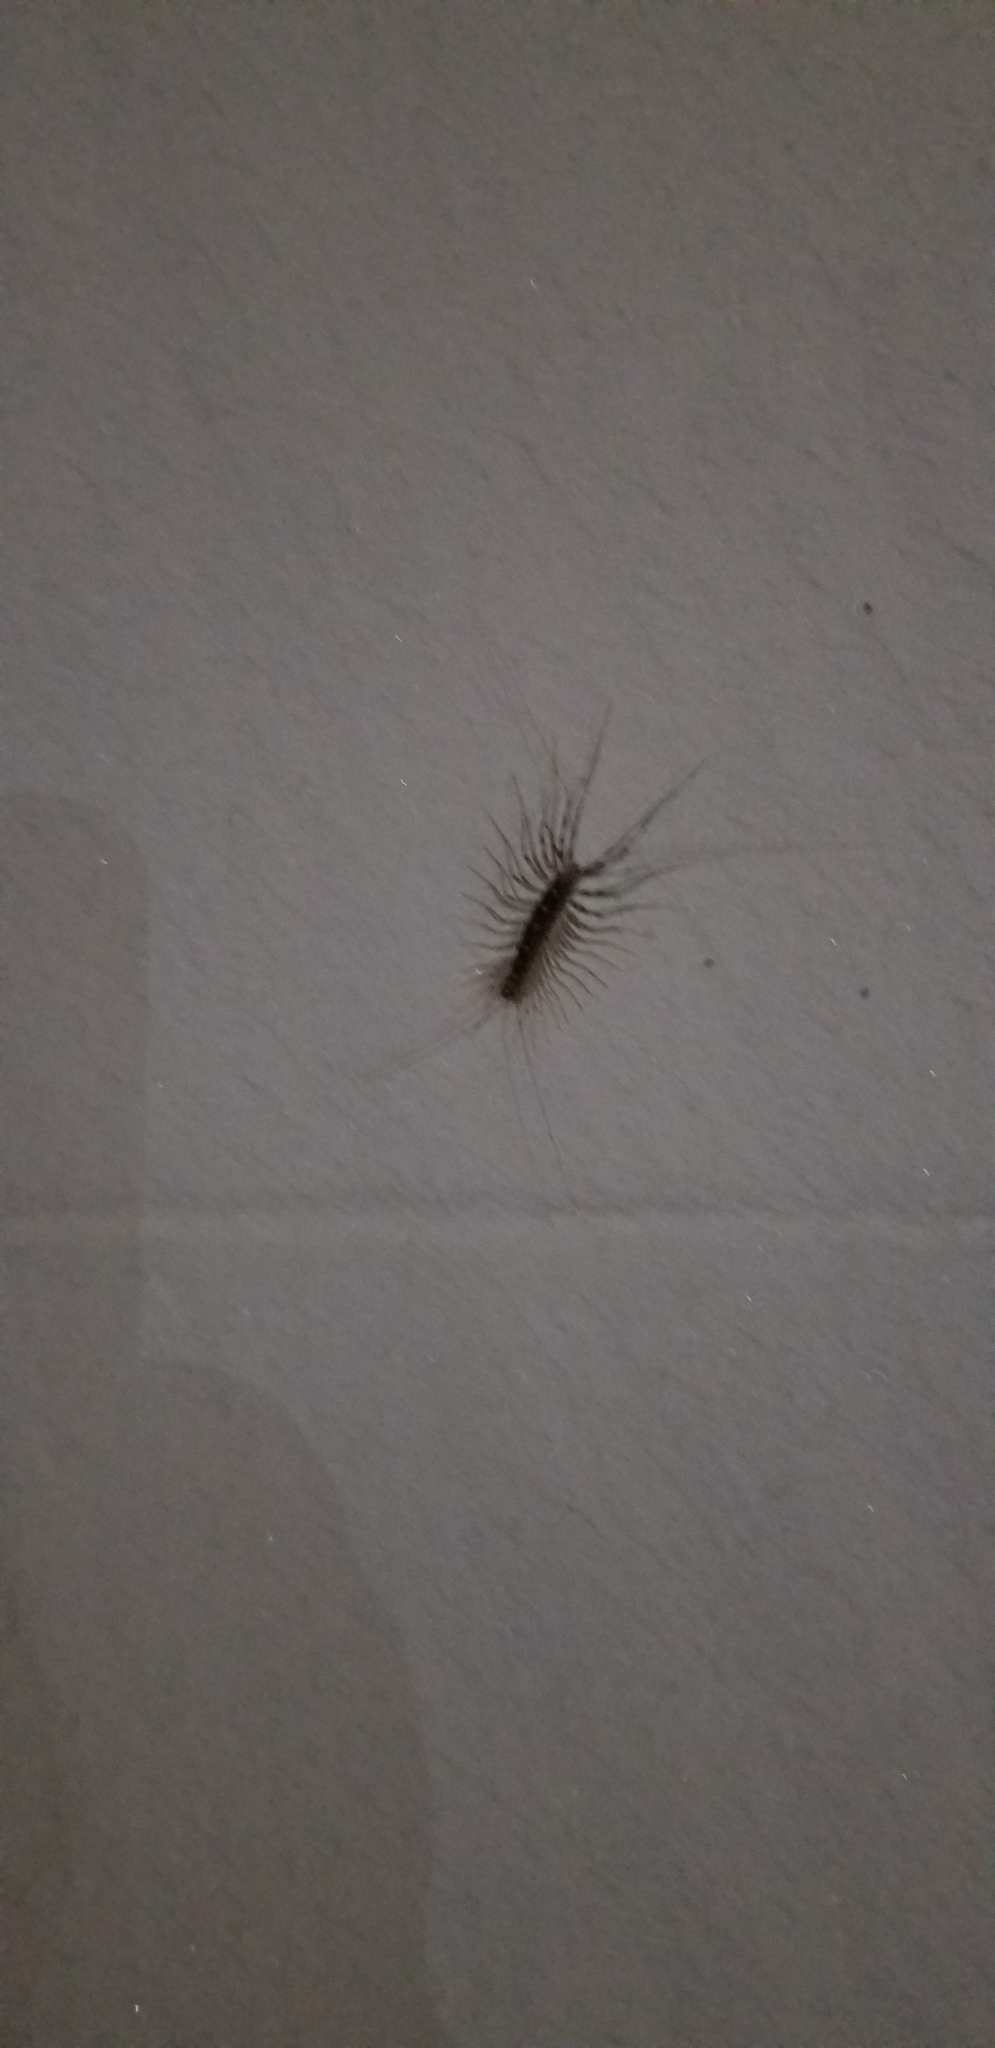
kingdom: Animalia
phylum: Arthropoda
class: Chilopoda
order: Scutigeromorpha
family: Scutigeridae
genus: Scutigera
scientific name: Scutigera coleoptrata
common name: House centipede
